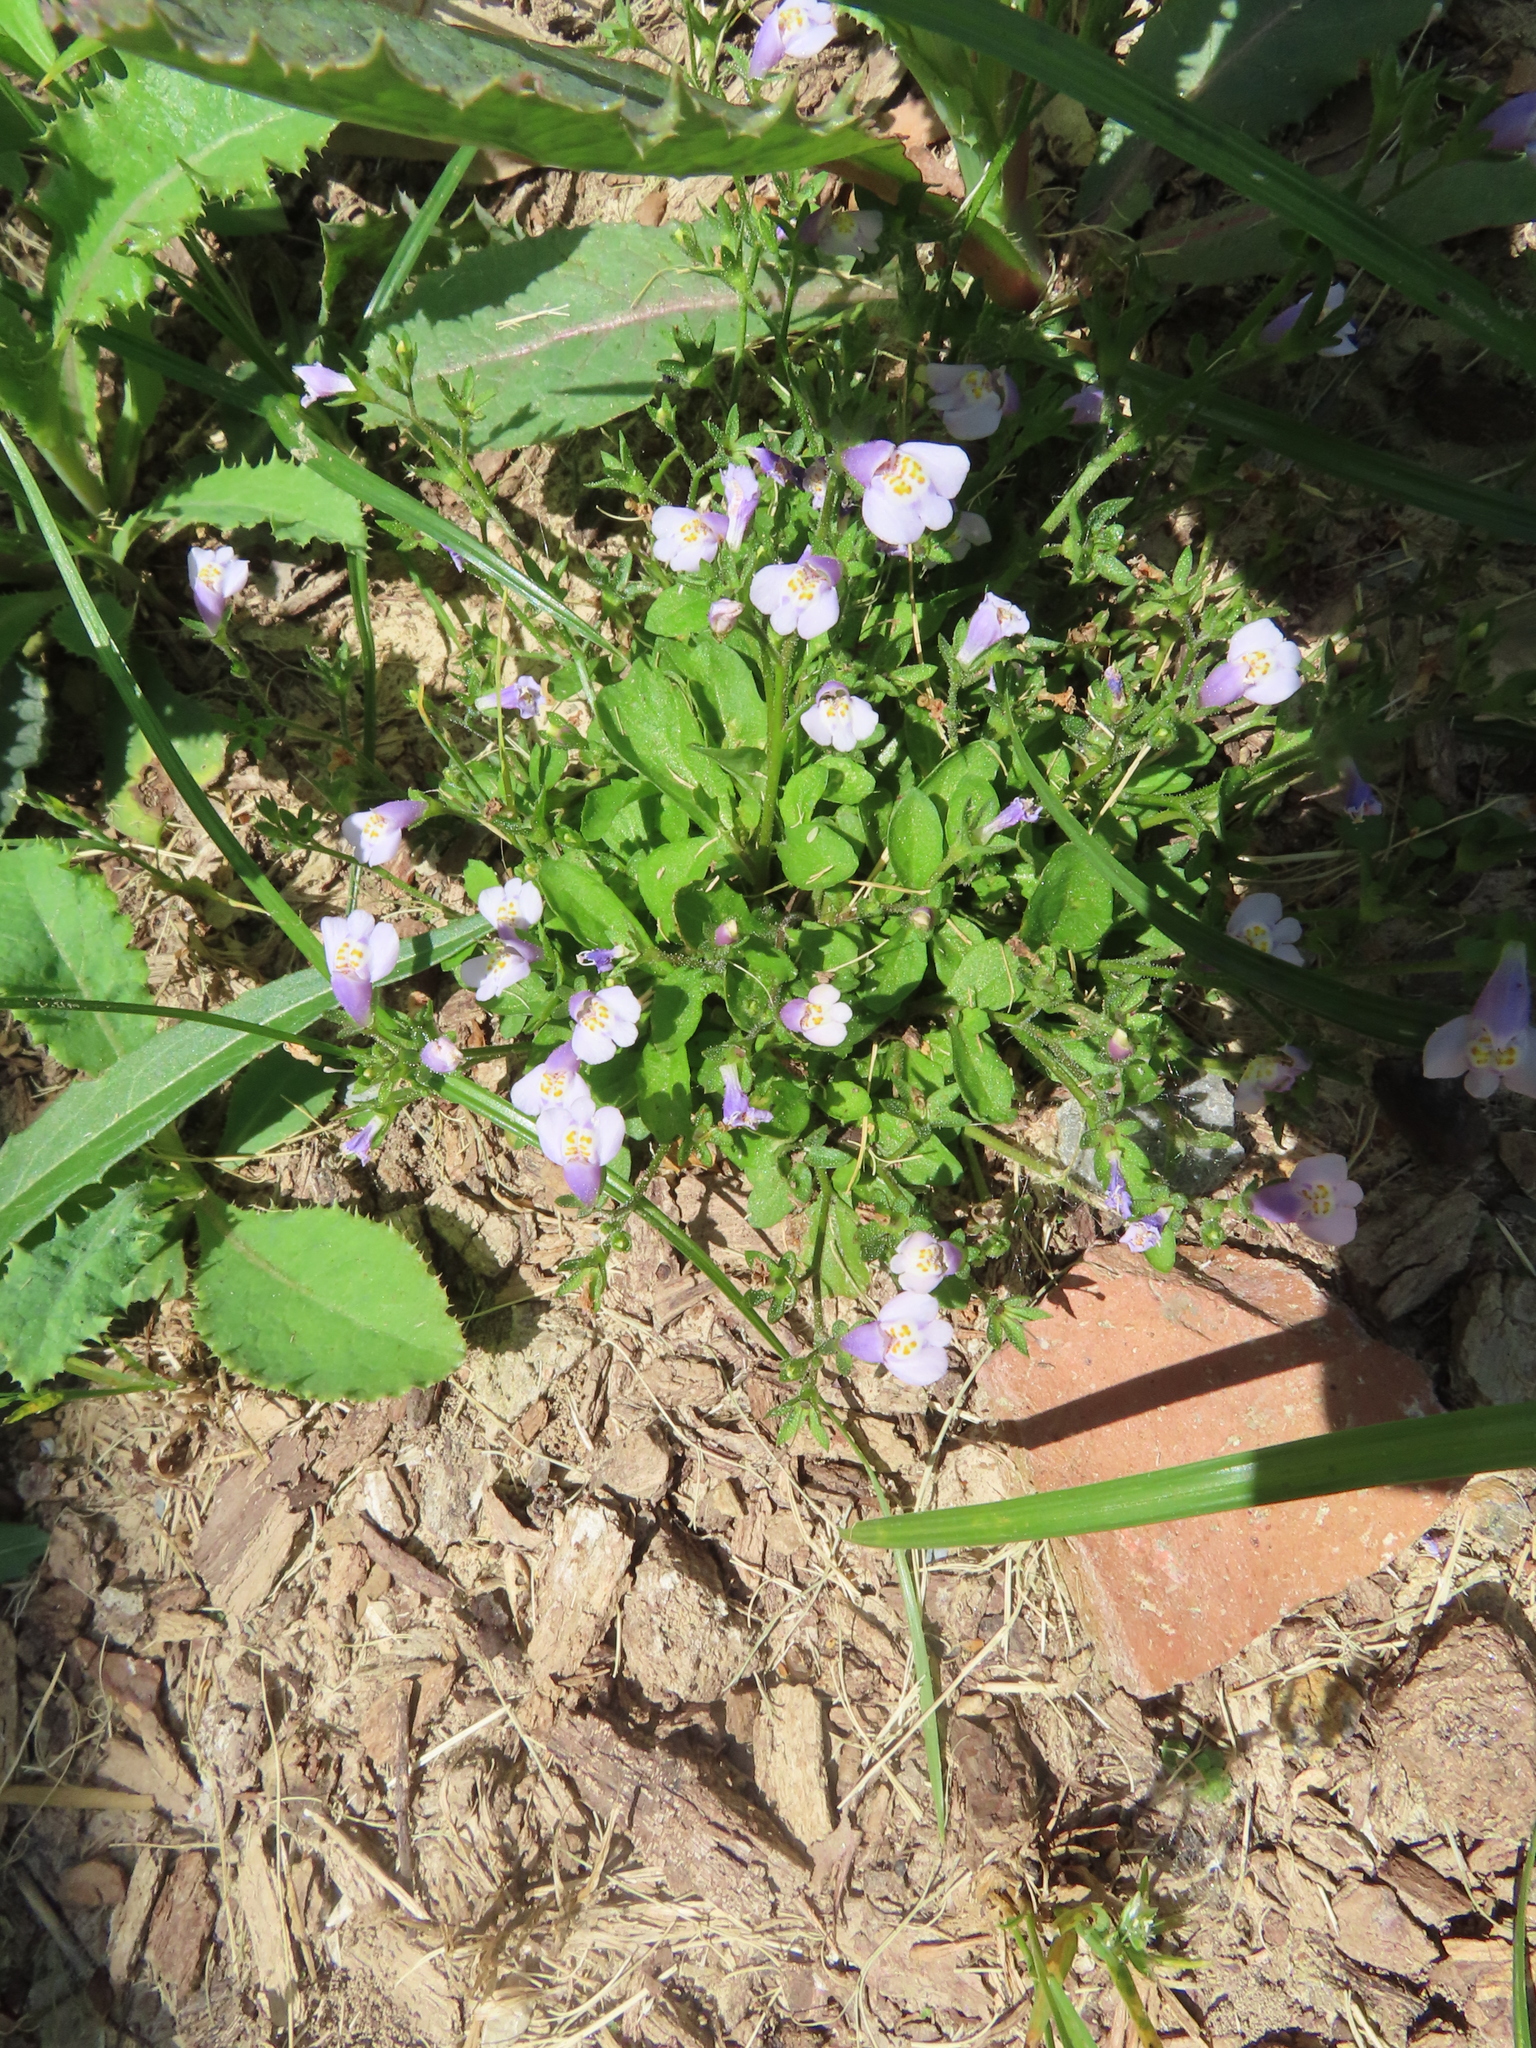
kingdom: Plantae
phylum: Tracheophyta
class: Magnoliopsida
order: Lamiales
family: Mazaceae
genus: Mazus
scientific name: Mazus pumilus
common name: Japanese mazus
